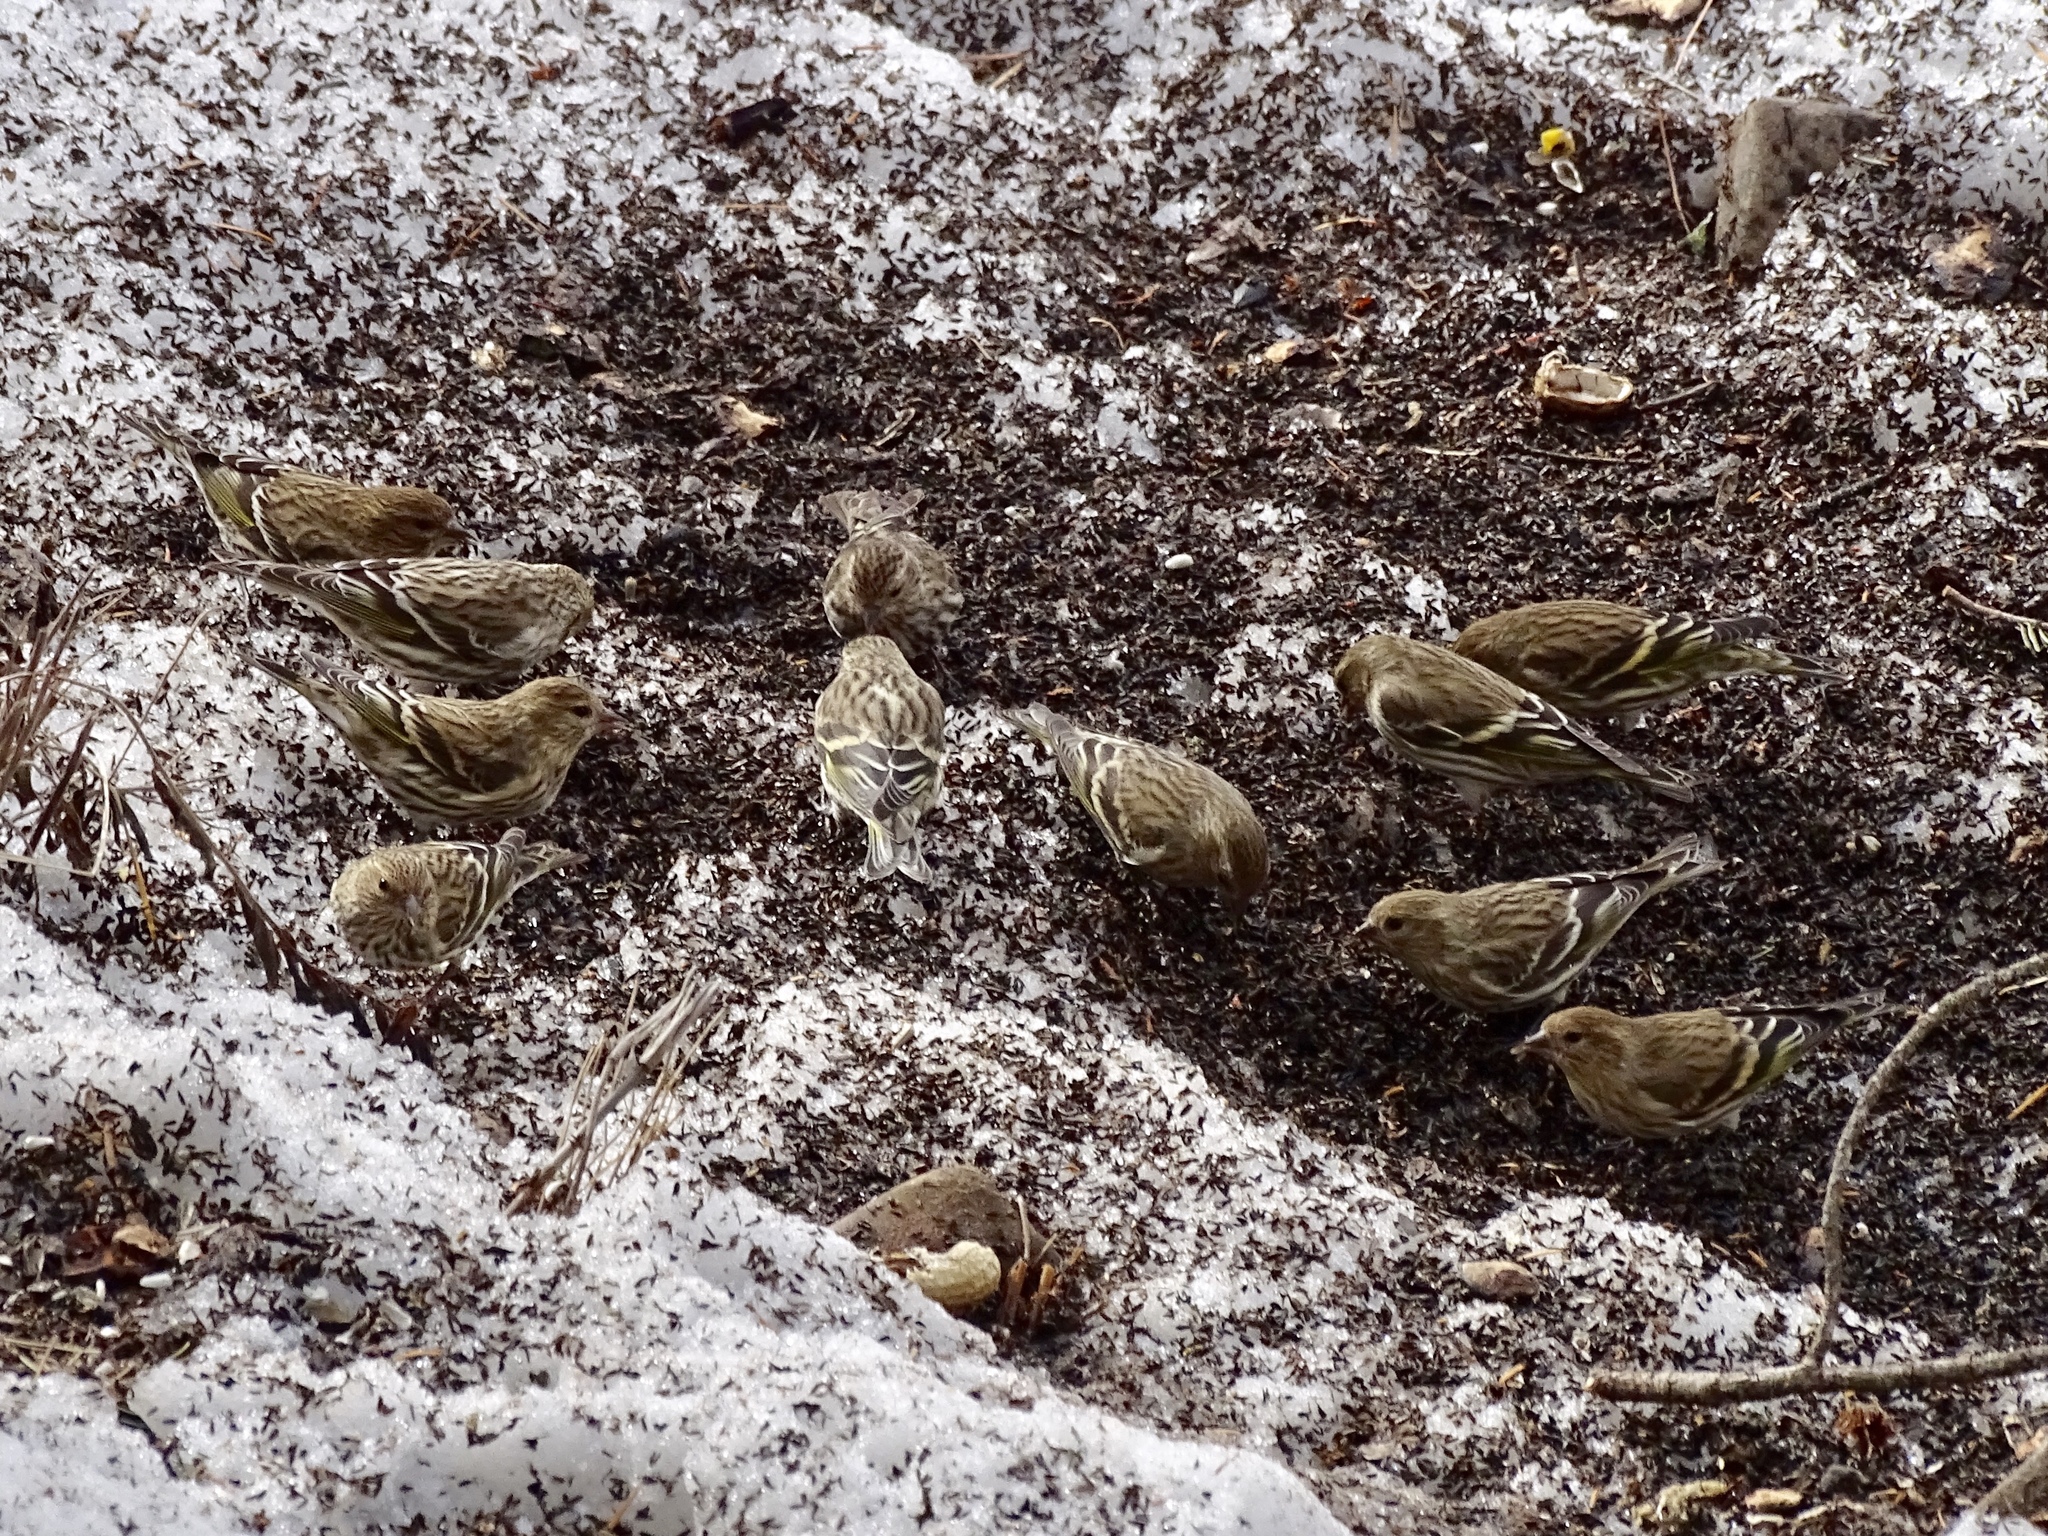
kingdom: Animalia
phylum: Chordata
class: Aves
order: Passeriformes
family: Fringillidae
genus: Spinus
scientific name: Spinus pinus
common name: Pine siskin
